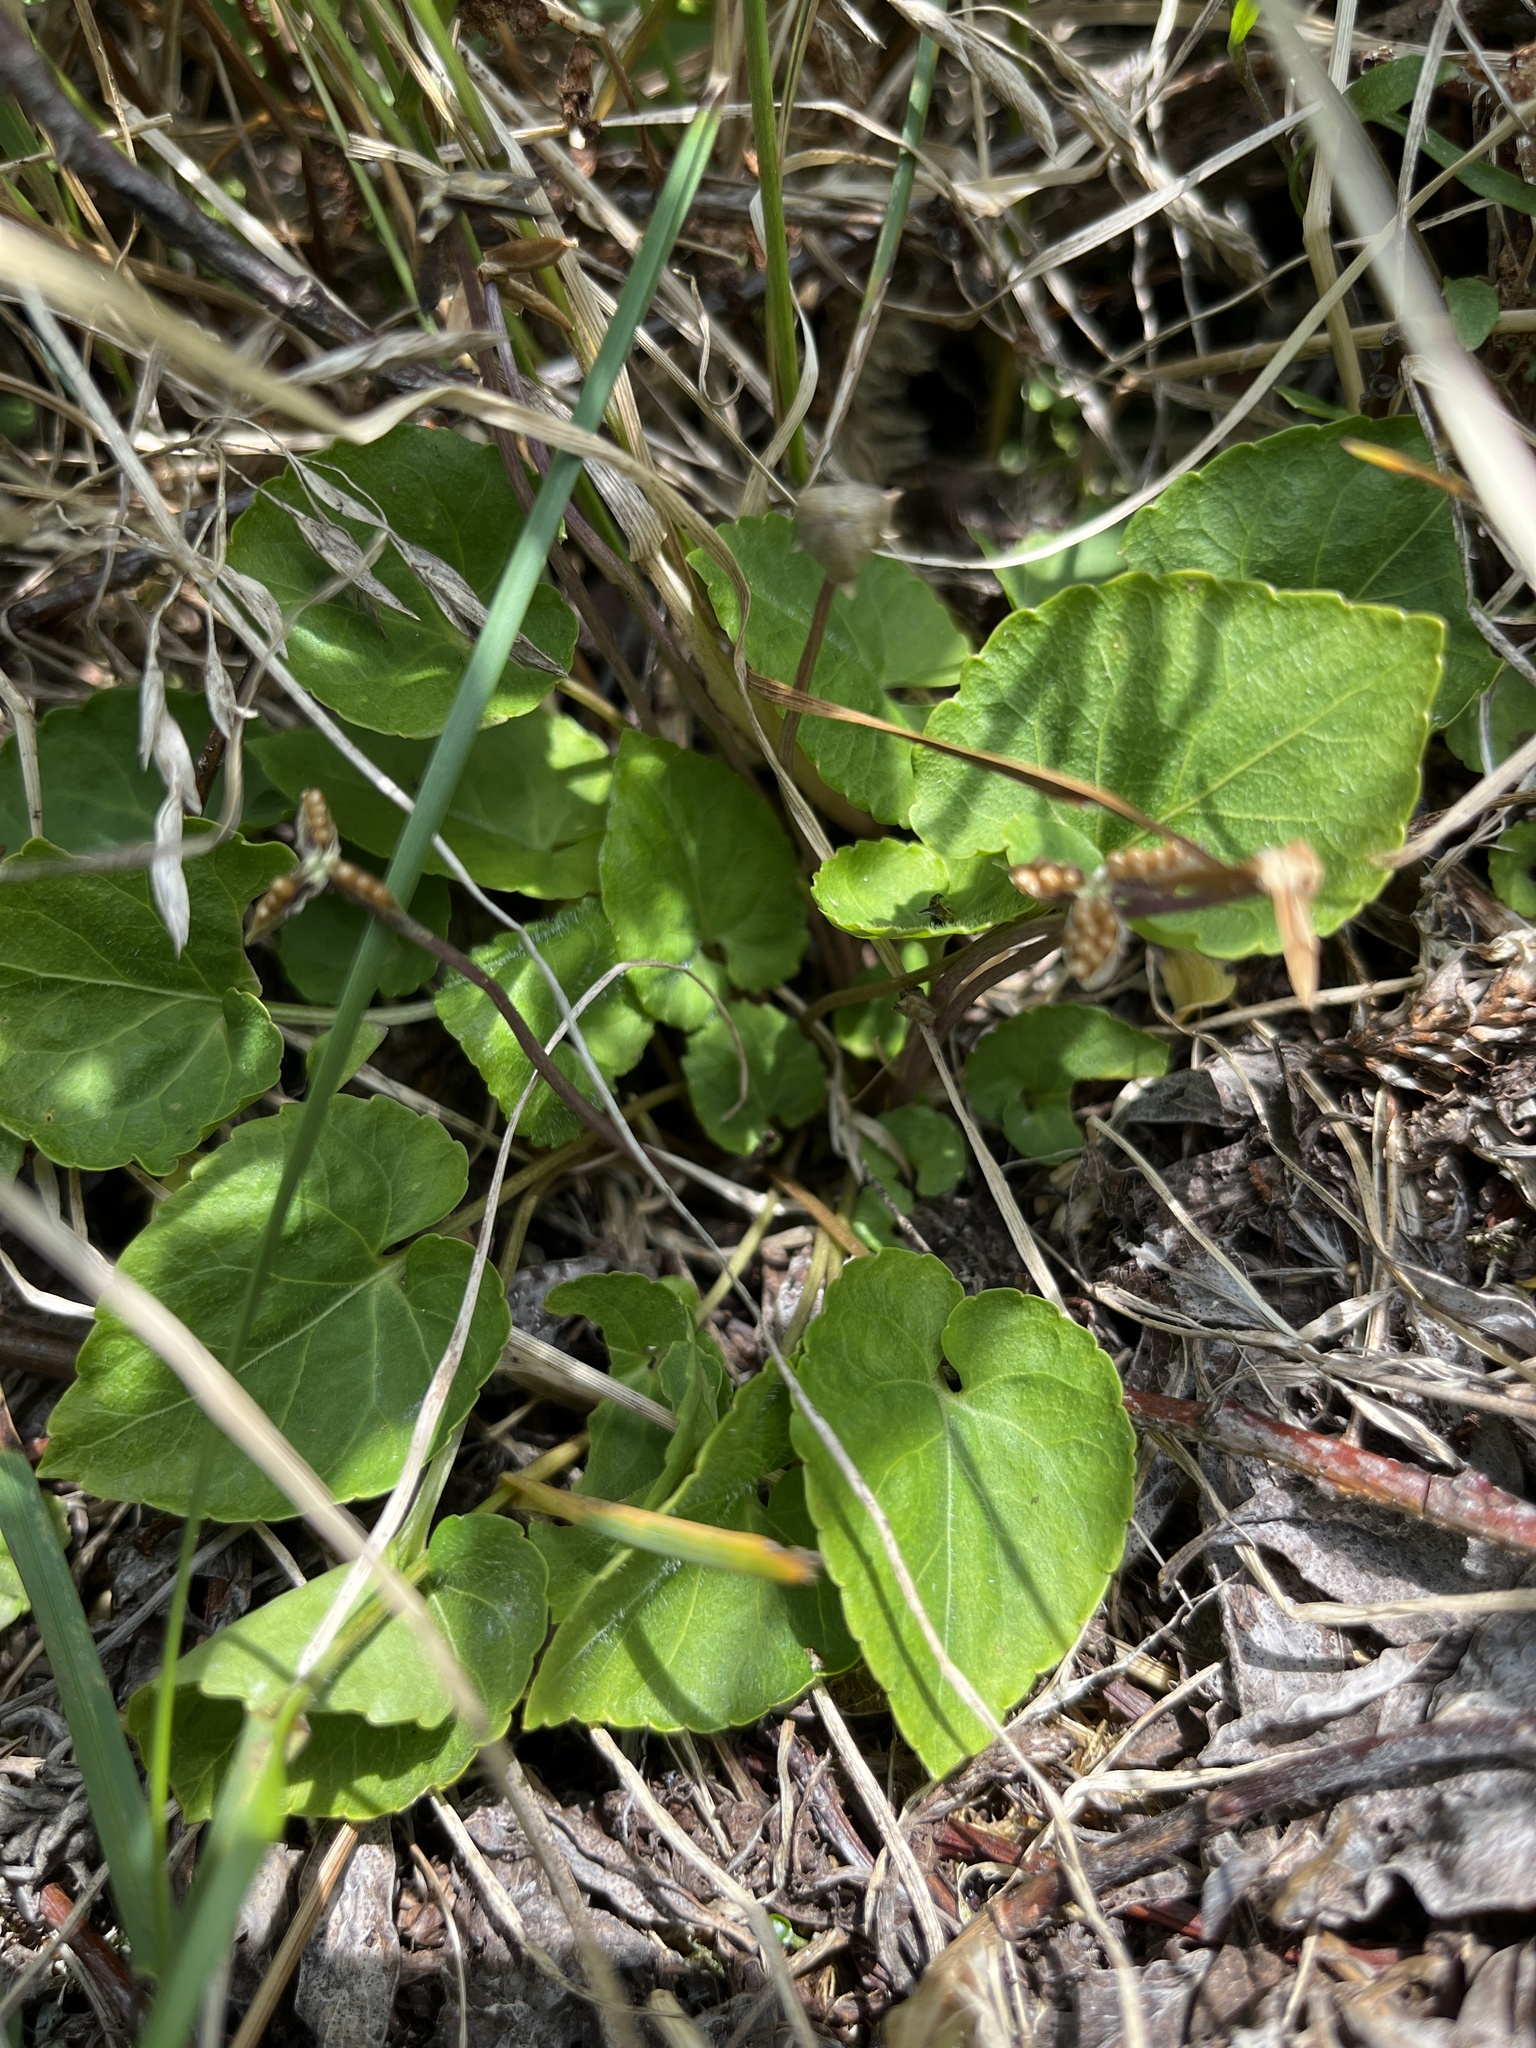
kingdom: Plantae
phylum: Tracheophyta
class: Magnoliopsida
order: Malpighiales
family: Violaceae
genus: Viola
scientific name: Viola selkirkii
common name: Selkirk's violet
